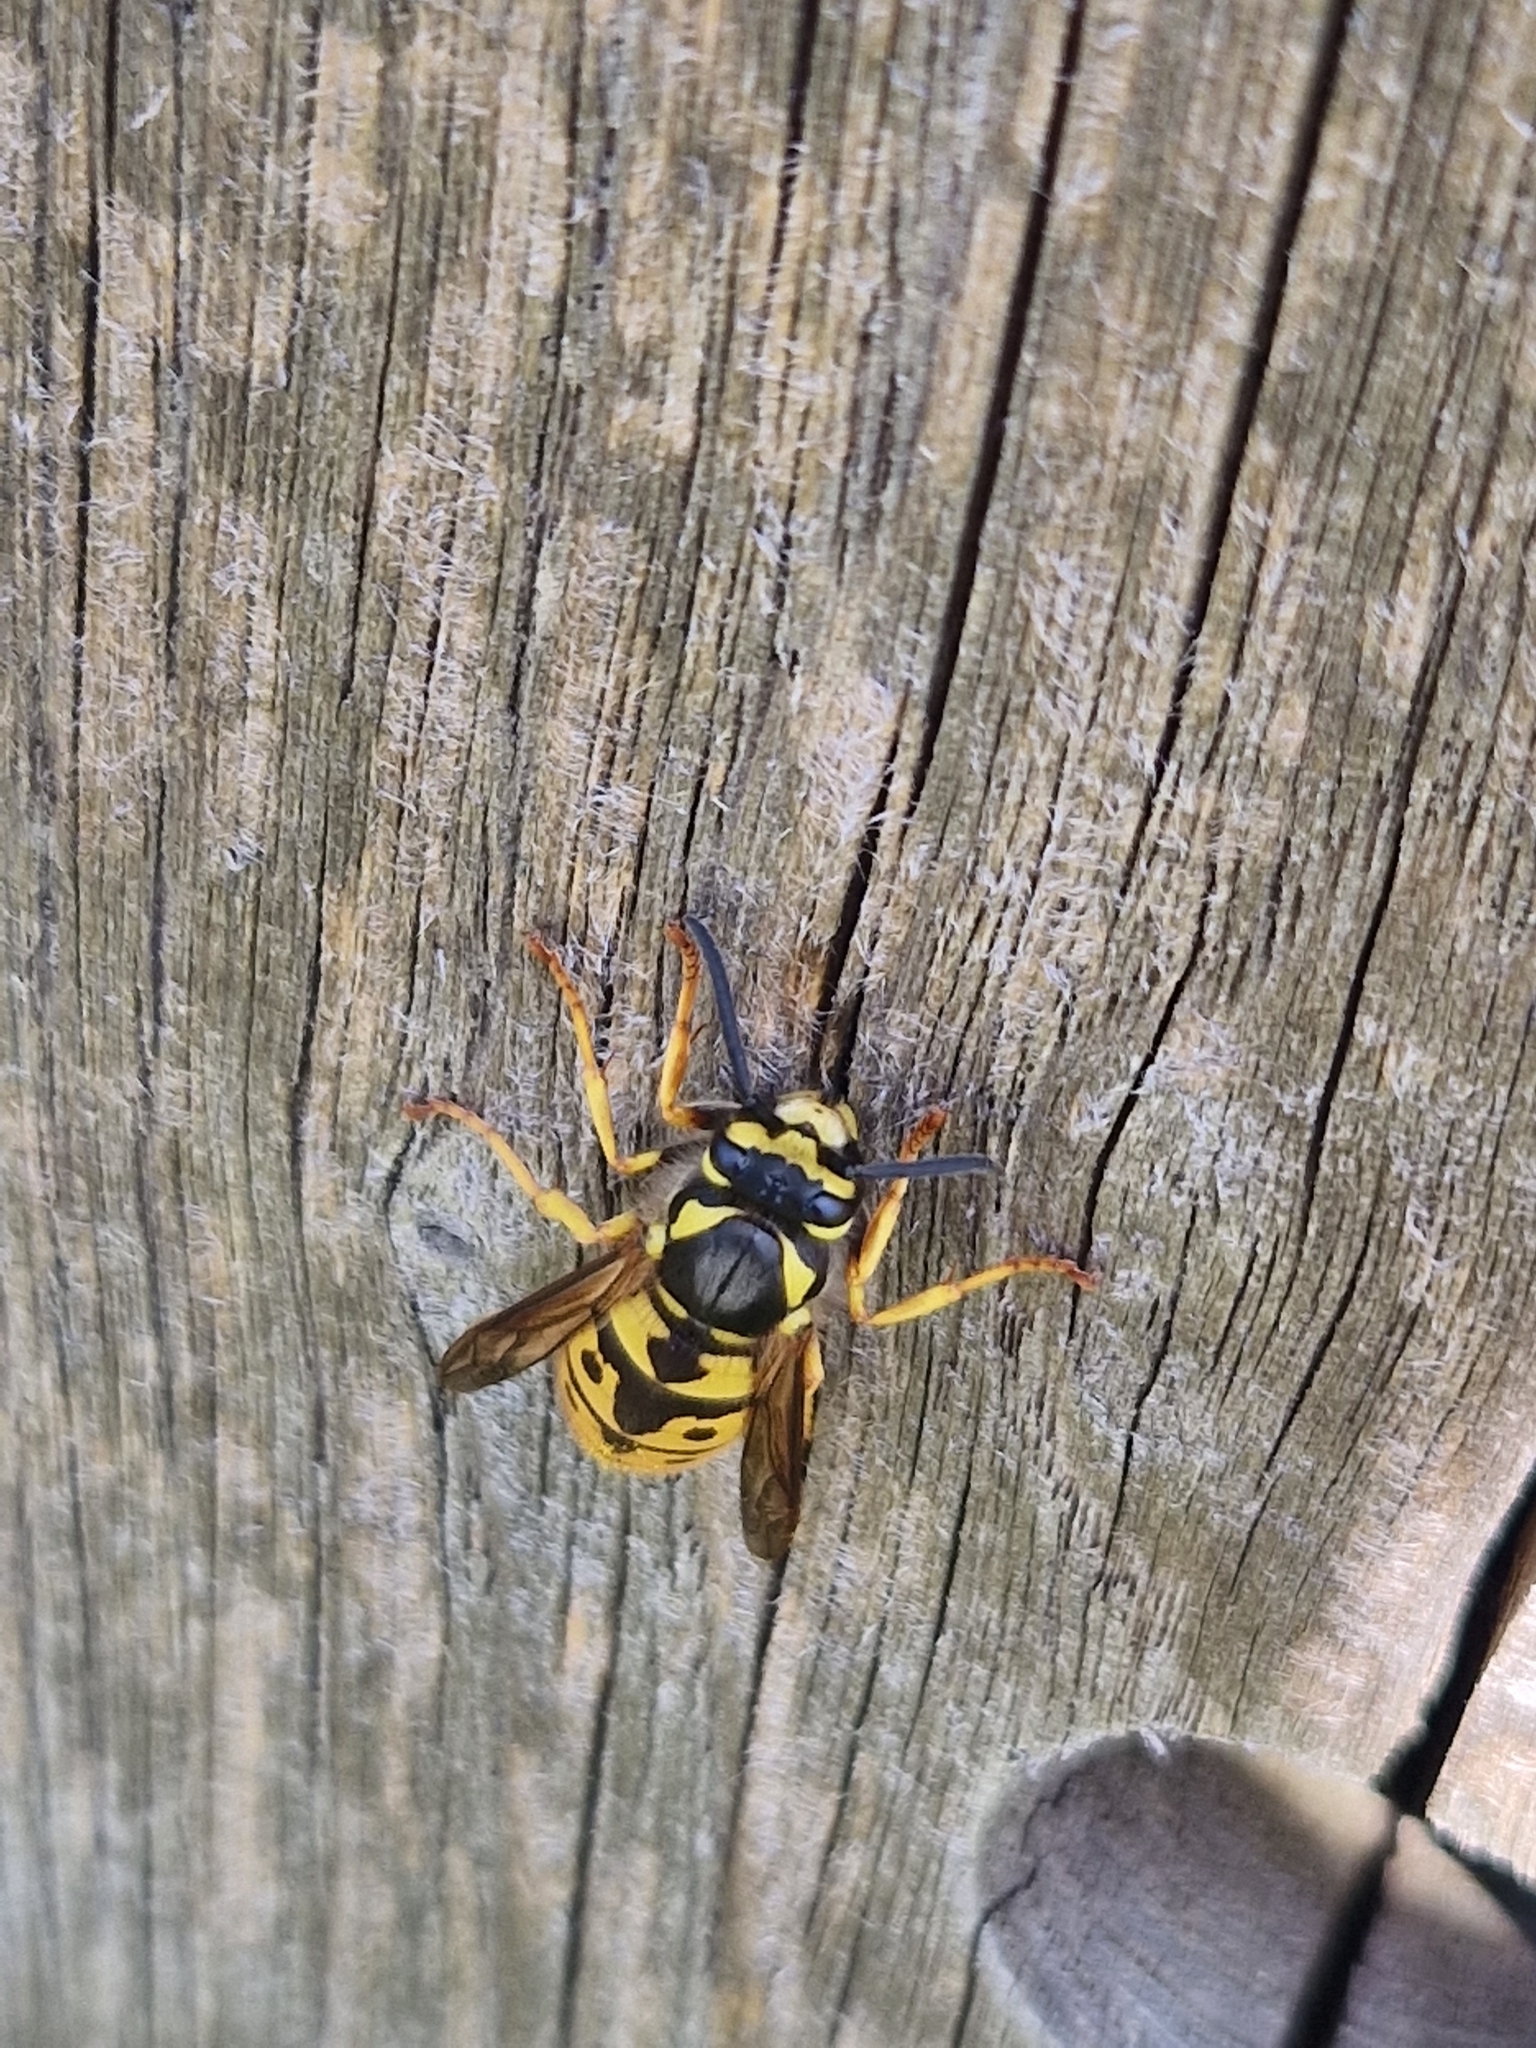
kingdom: Animalia
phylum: Arthropoda
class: Insecta
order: Hymenoptera
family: Eumenidae
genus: Polistes
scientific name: Polistes dominula
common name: Paper wasp
